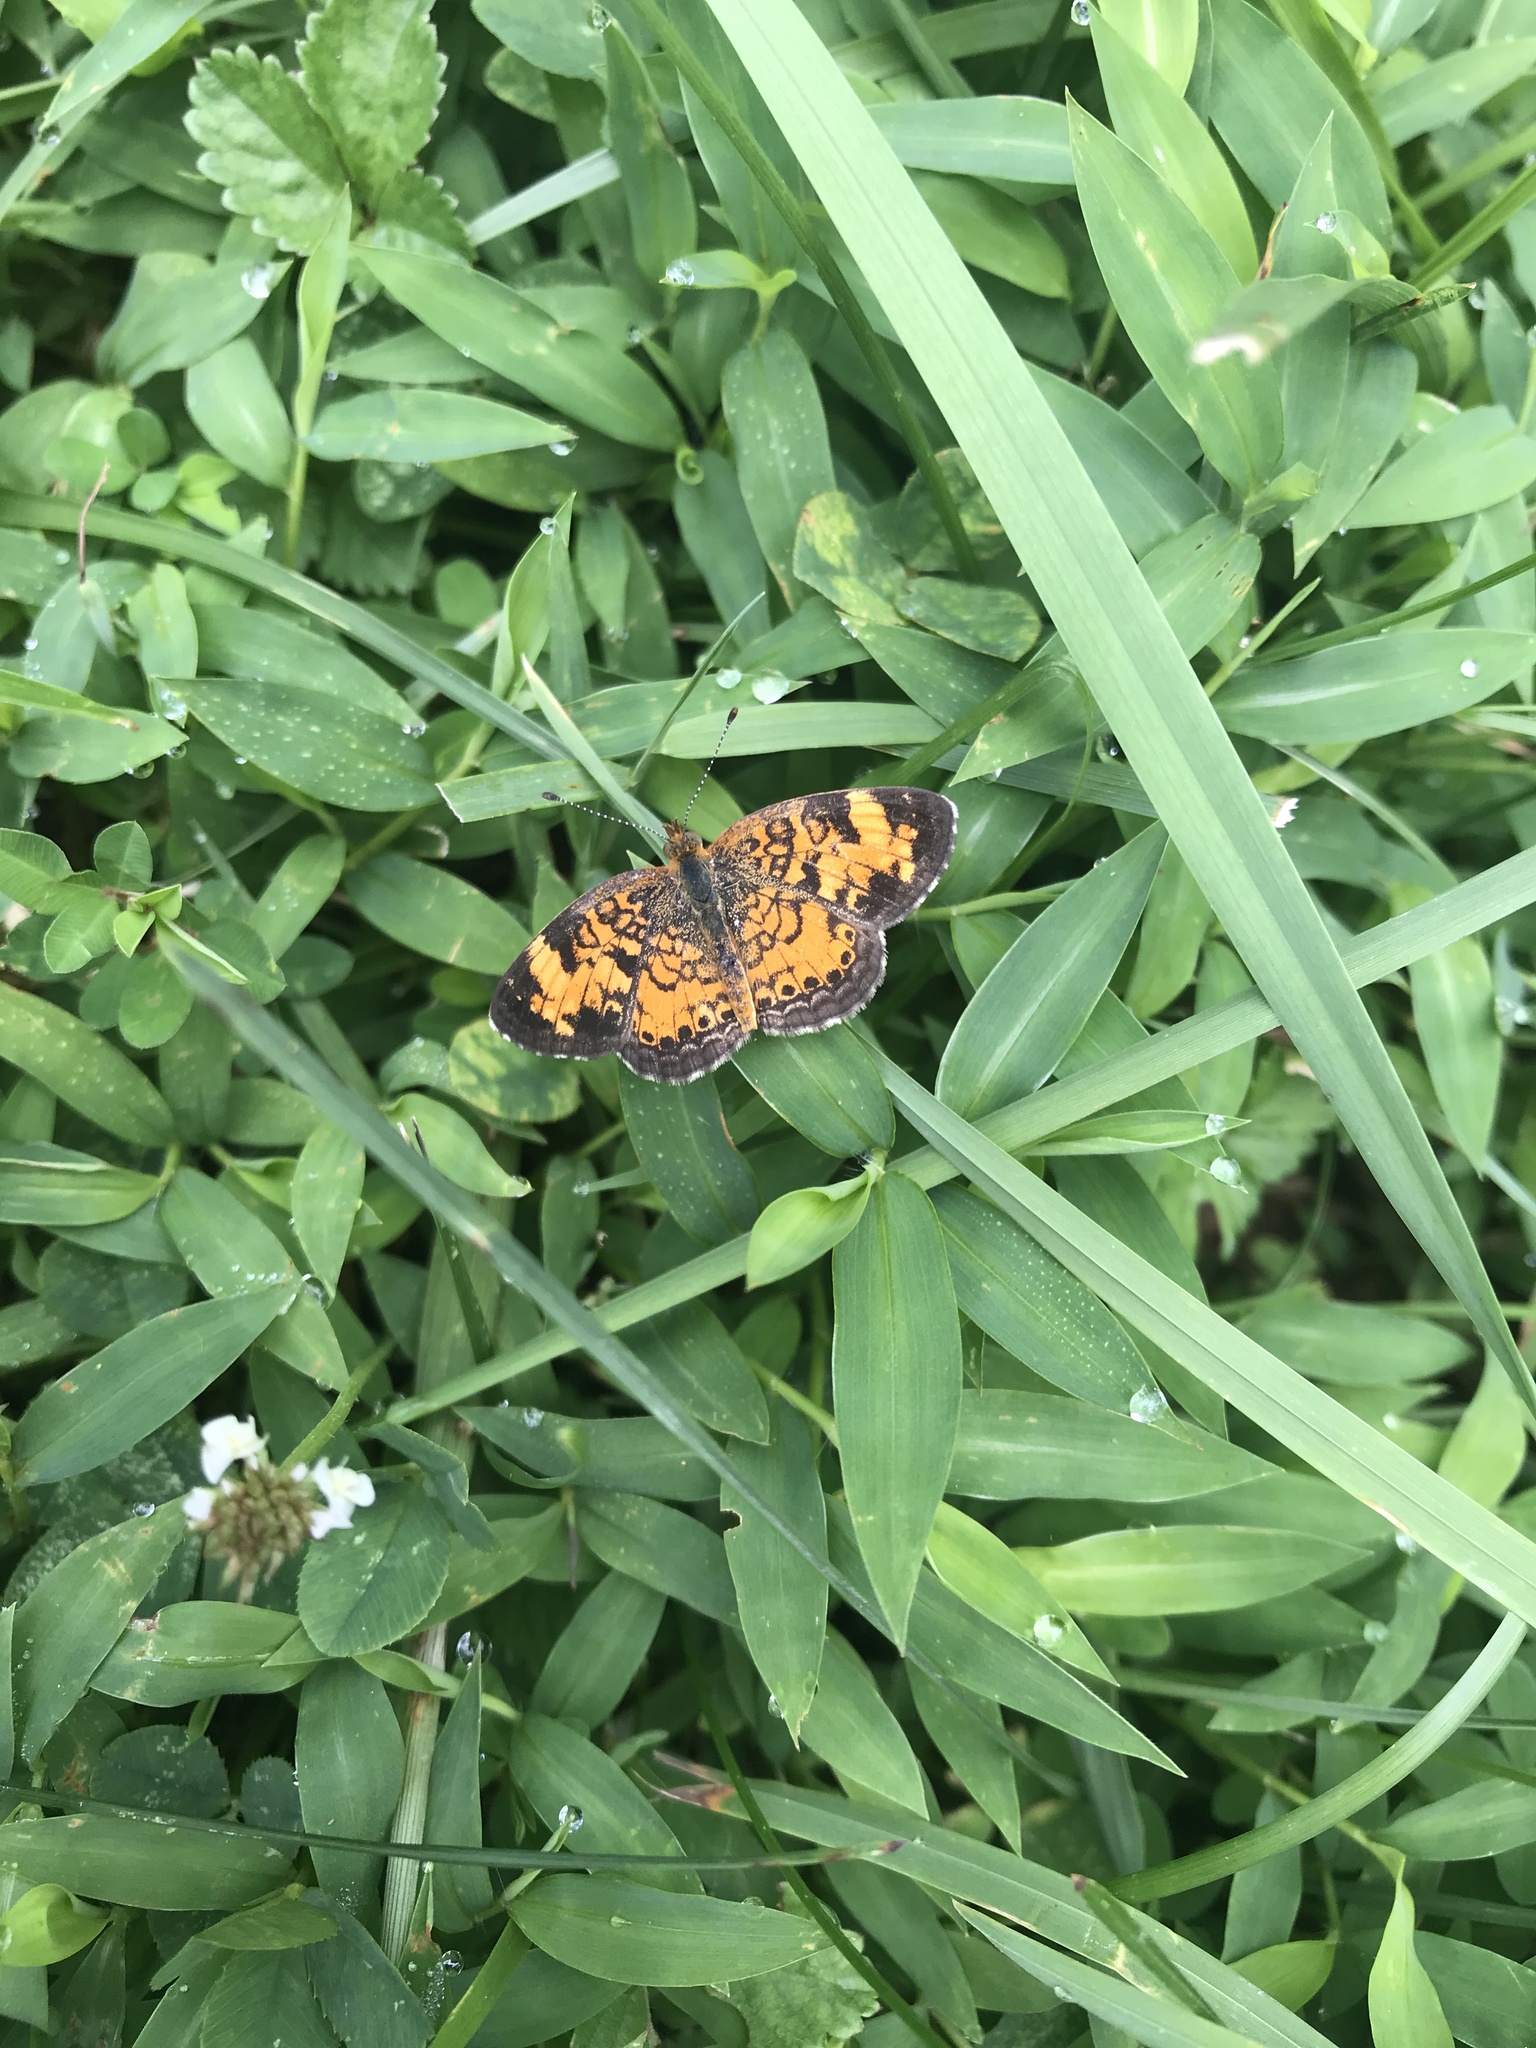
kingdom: Animalia
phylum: Arthropoda
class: Insecta
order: Lepidoptera
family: Nymphalidae
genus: Phyciodes
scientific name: Phyciodes tharos
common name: Pearl crescent
